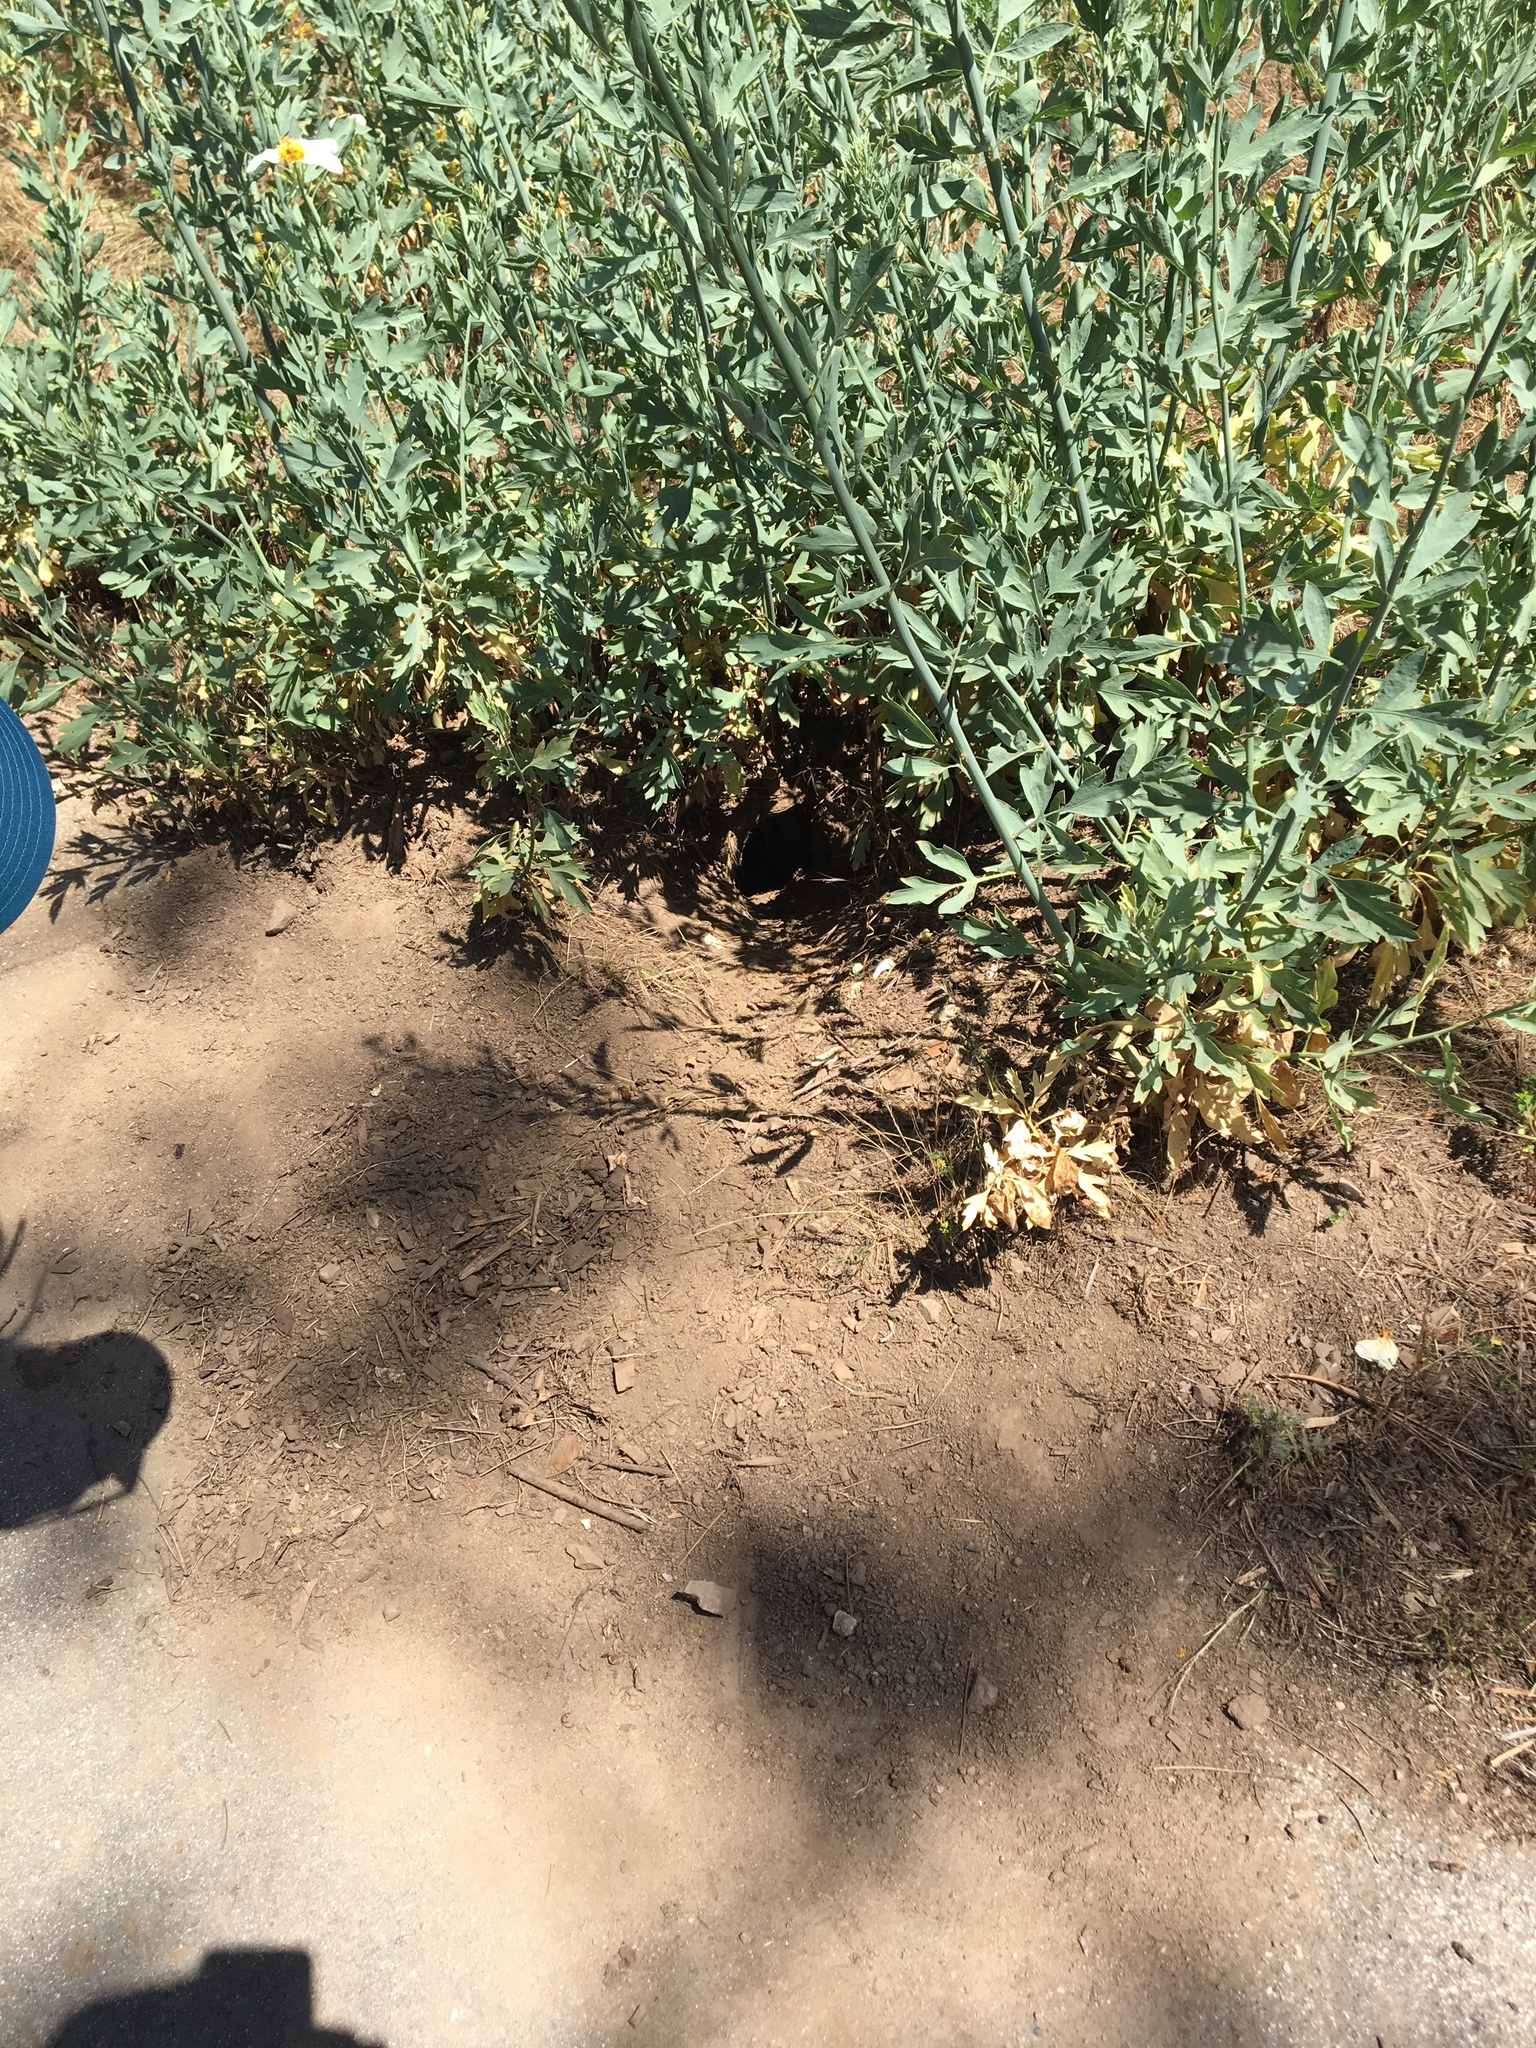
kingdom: Animalia
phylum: Chordata
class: Mammalia
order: Rodentia
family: Sciuridae
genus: Otospermophilus
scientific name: Otospermophilus beecheyi
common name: California ground squirrel
